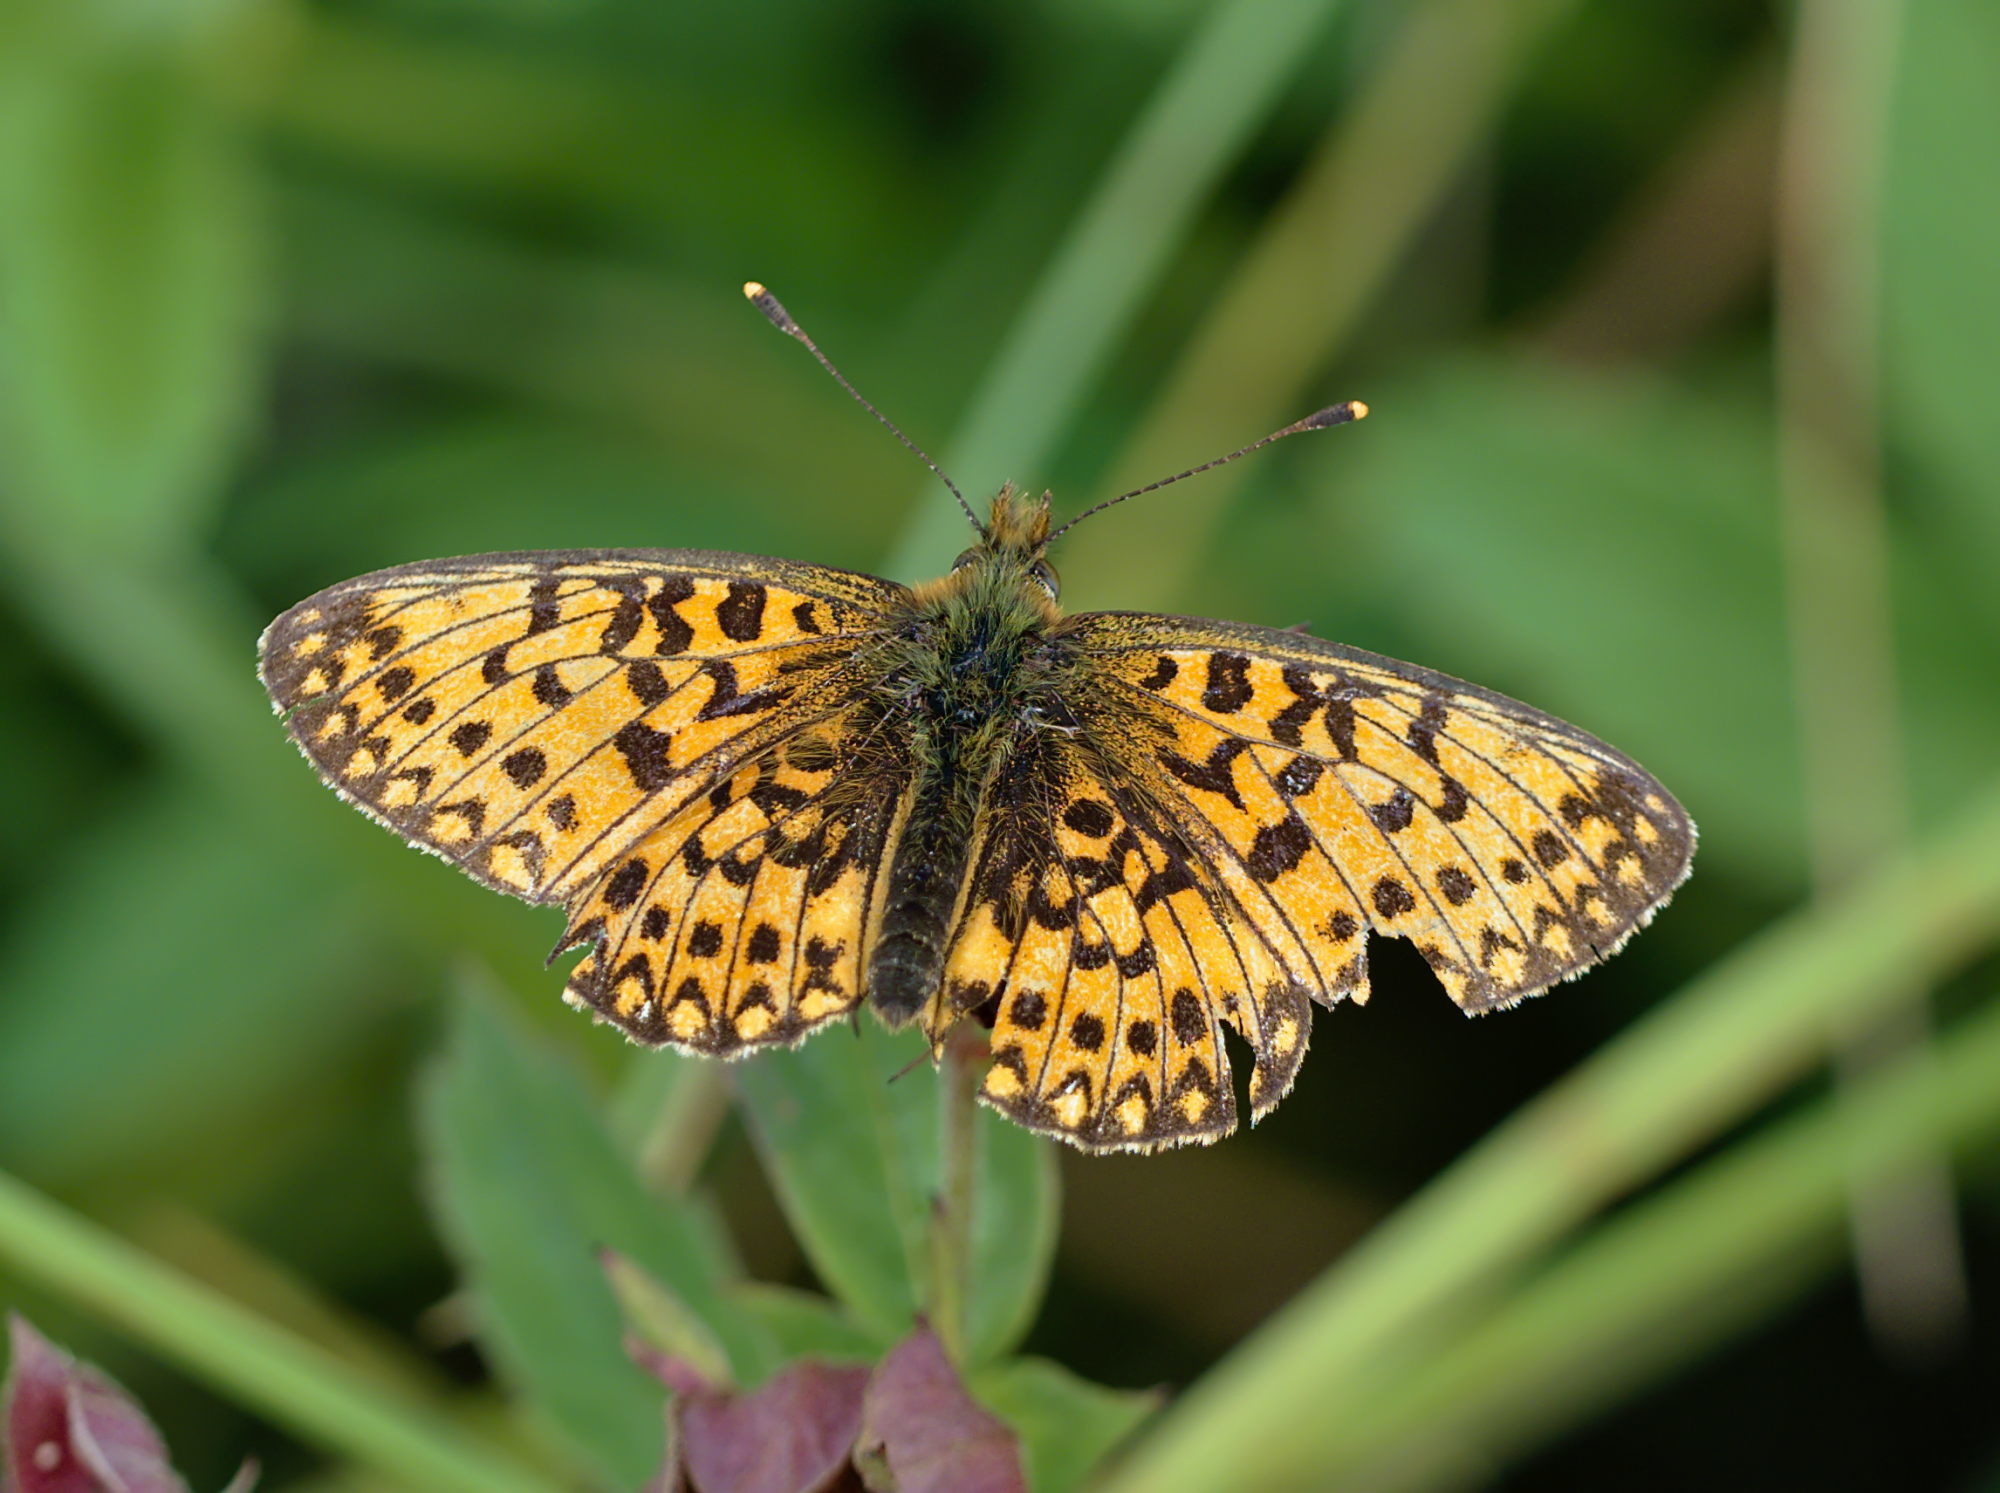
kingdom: Animalia
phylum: Arthropoda
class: Insecta
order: Lepidoptera
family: Nymphalidae
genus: Boloria
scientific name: Boloria selene
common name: Small pearl-bordered fritillary
